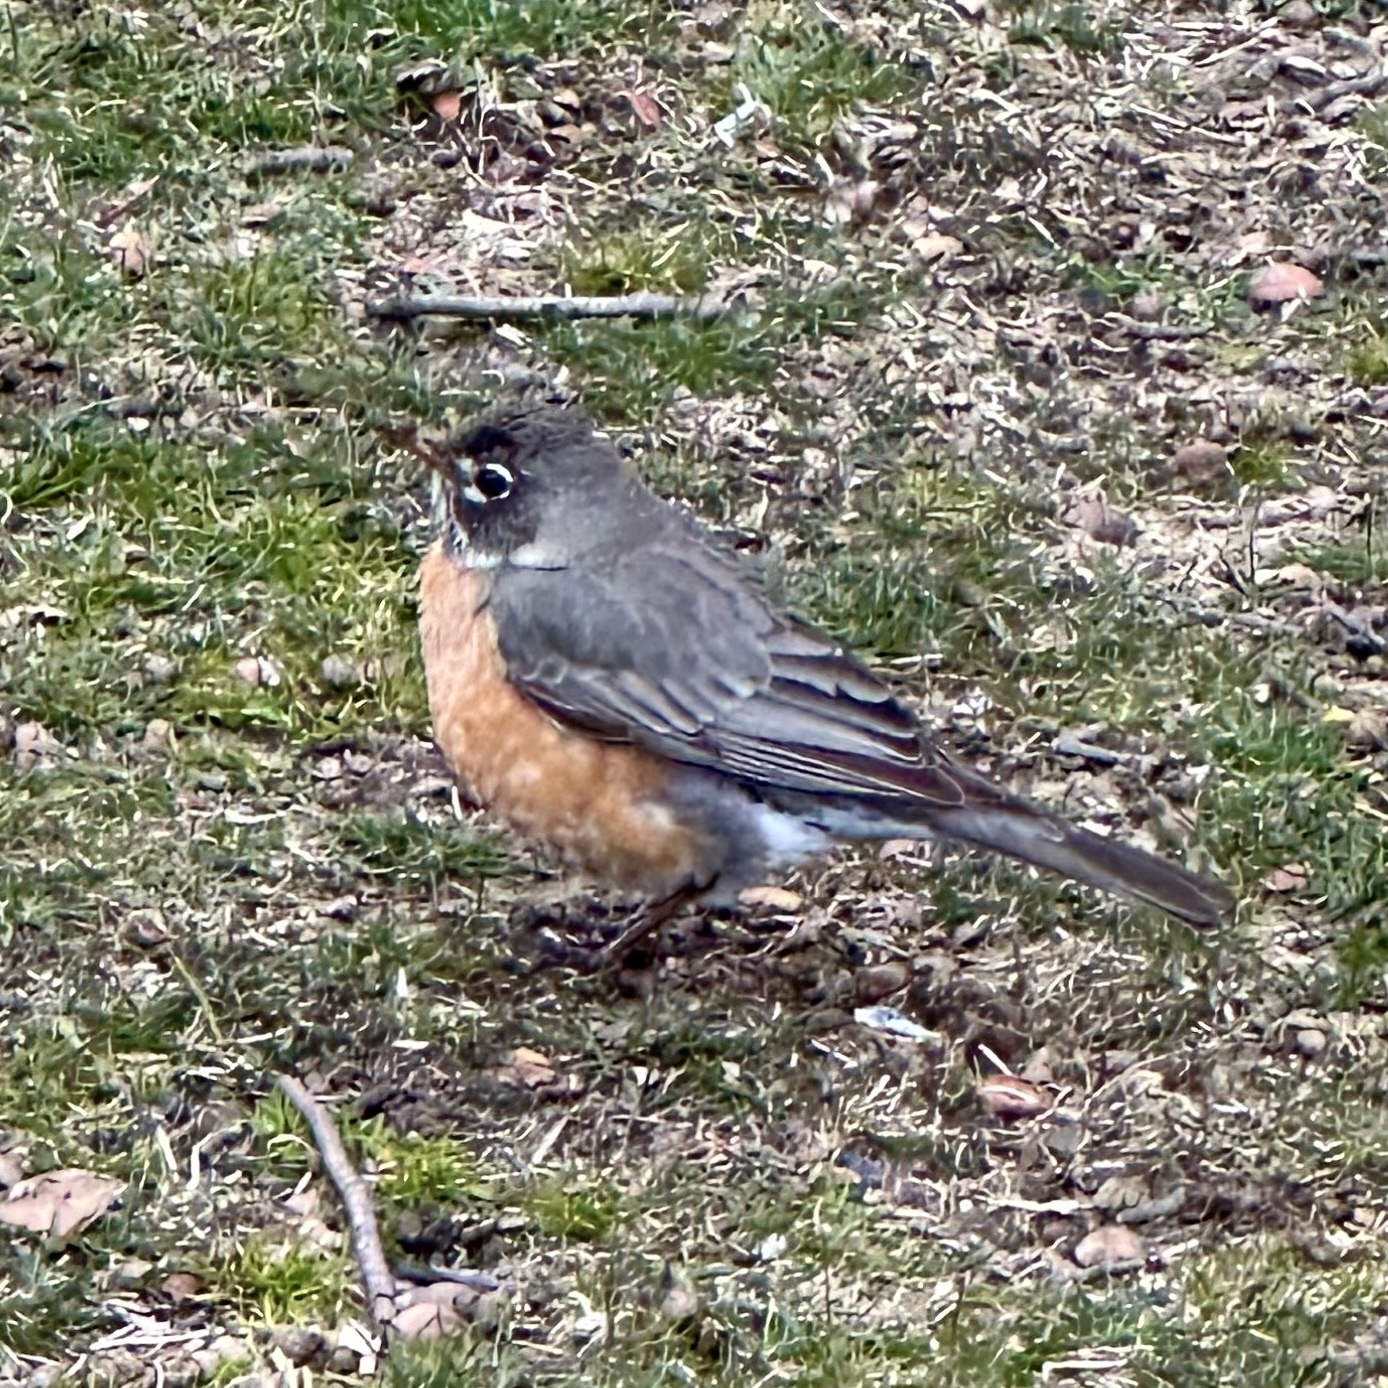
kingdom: Animalia
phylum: Chordata
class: Aves
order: Passeriformes
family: Turdidae
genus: Turdus
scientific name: Turdus migratorius
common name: American robin
